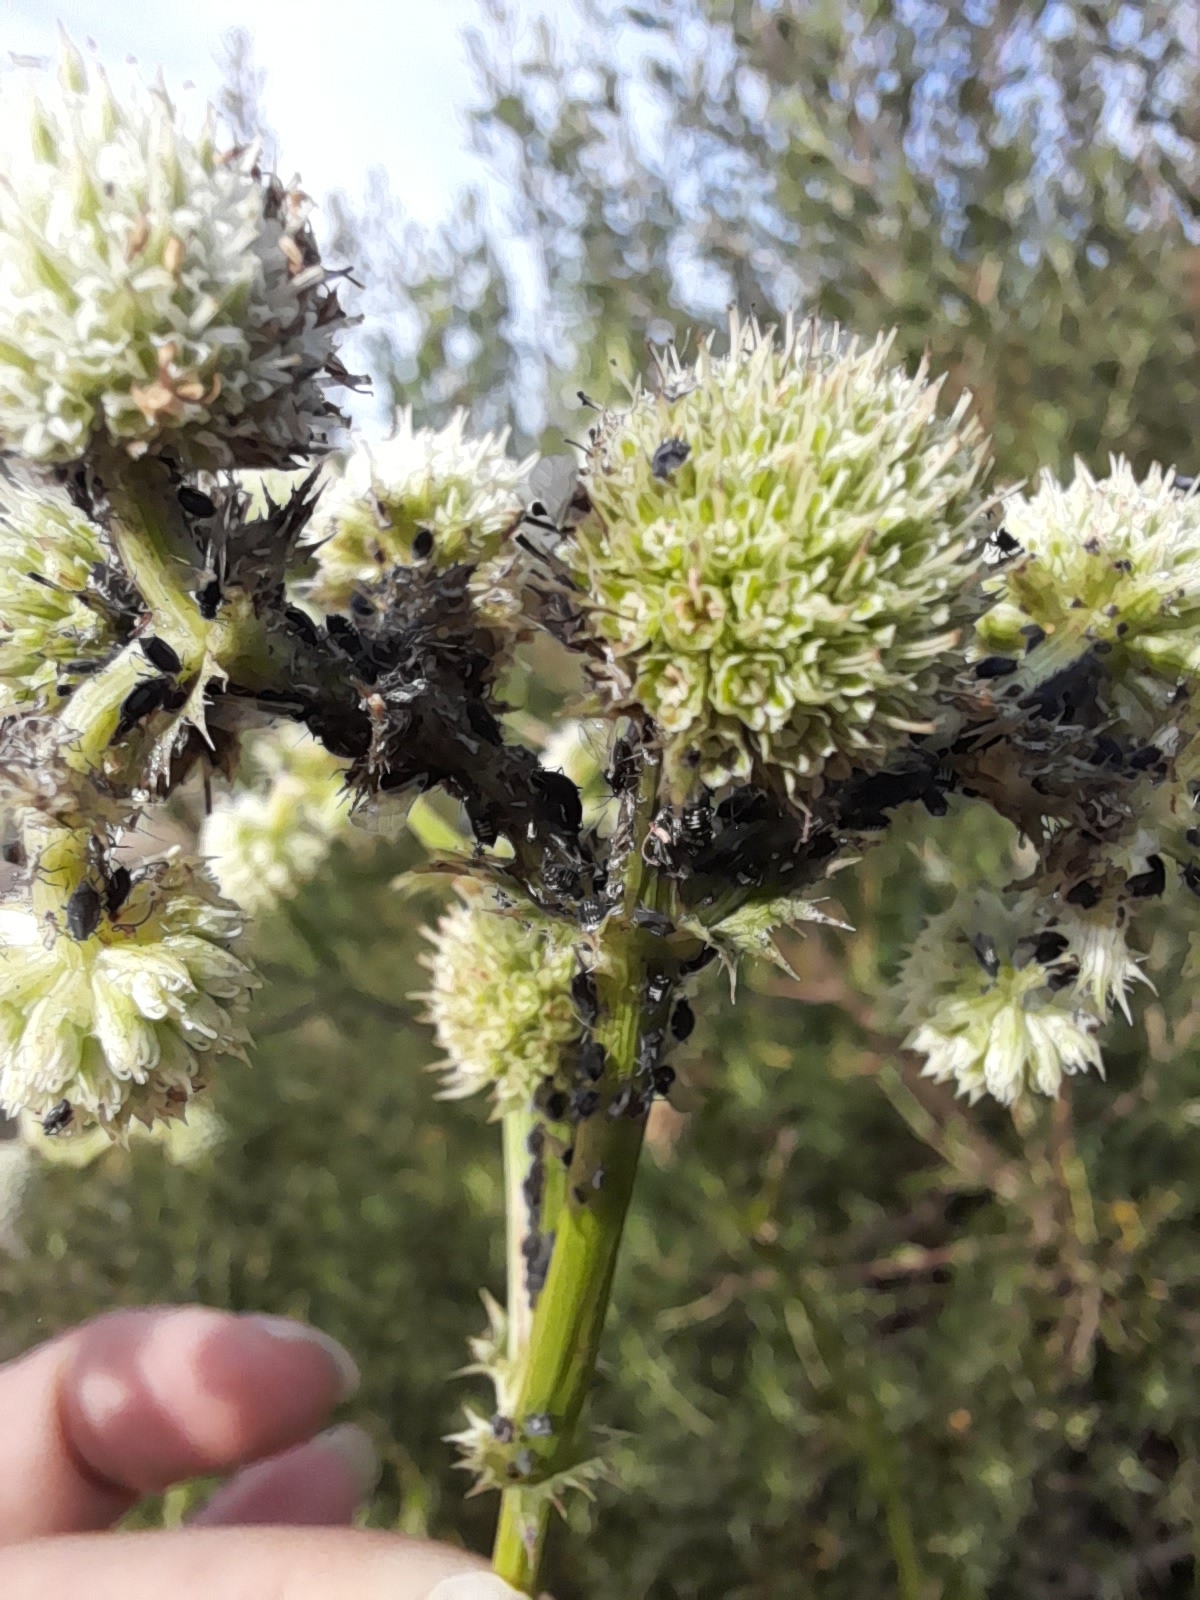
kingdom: Plantae
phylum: Tracheophyta
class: Magnoliopsida
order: Apiales
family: Apiaceae
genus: Eryngium
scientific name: Eryngium elegans
